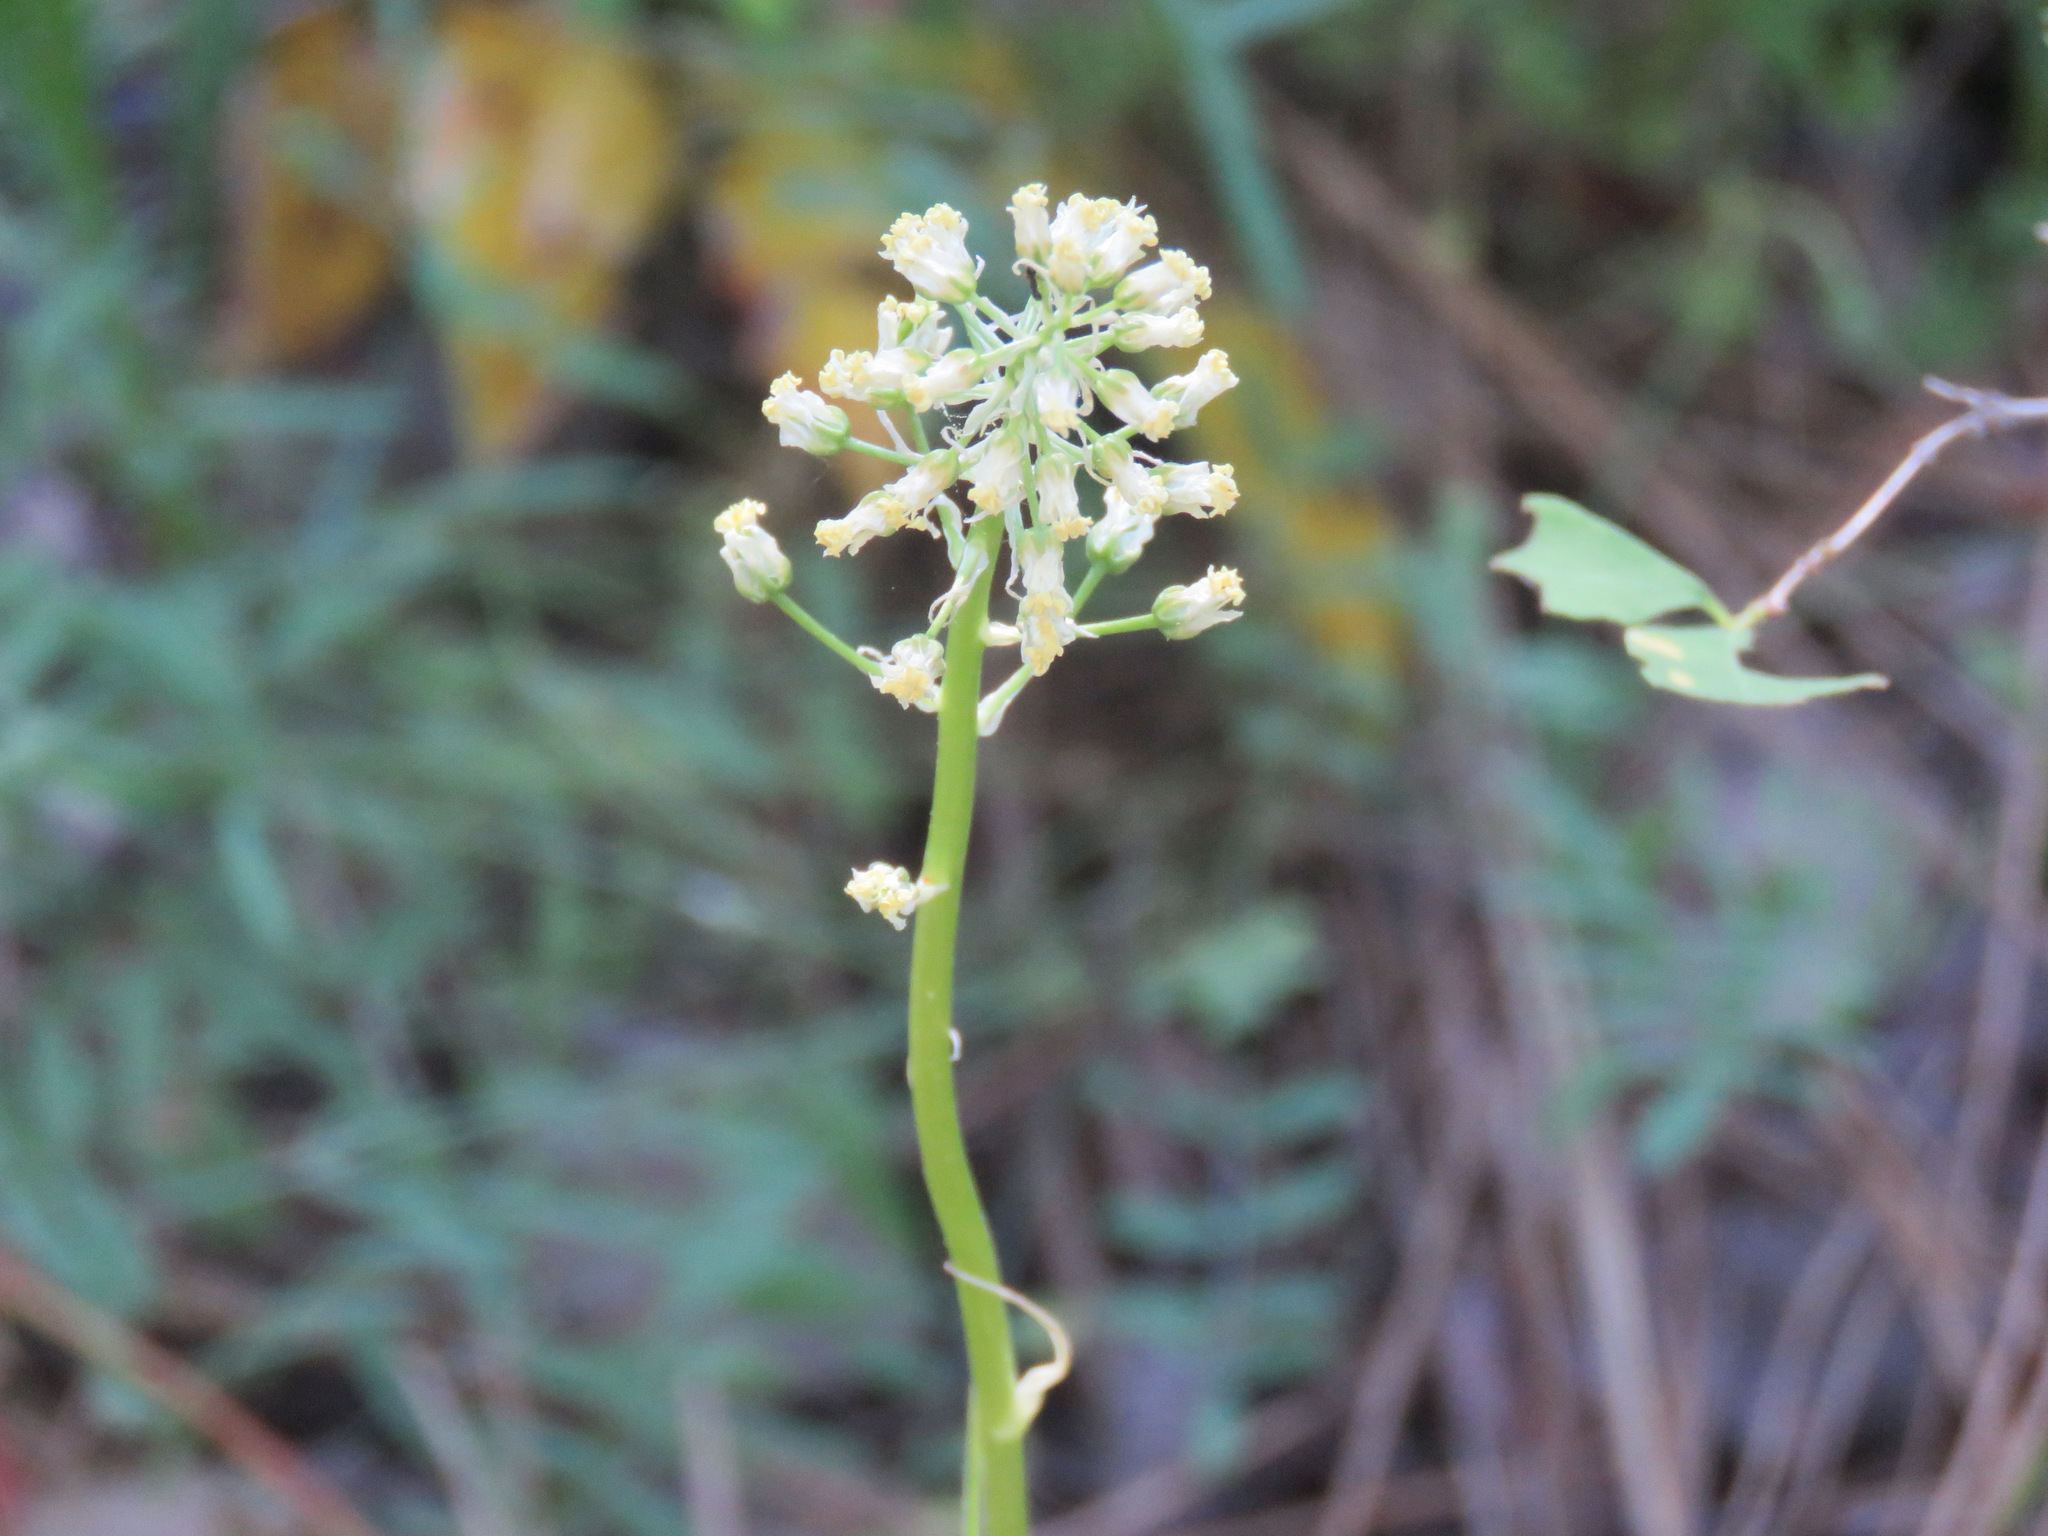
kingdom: Plantae
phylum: Tracheophyta
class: Liliopsida
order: Liliales
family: Melanthiaceae
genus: Toxicoscordion
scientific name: Toxicoscordion venenosum
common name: Meadow death camas
